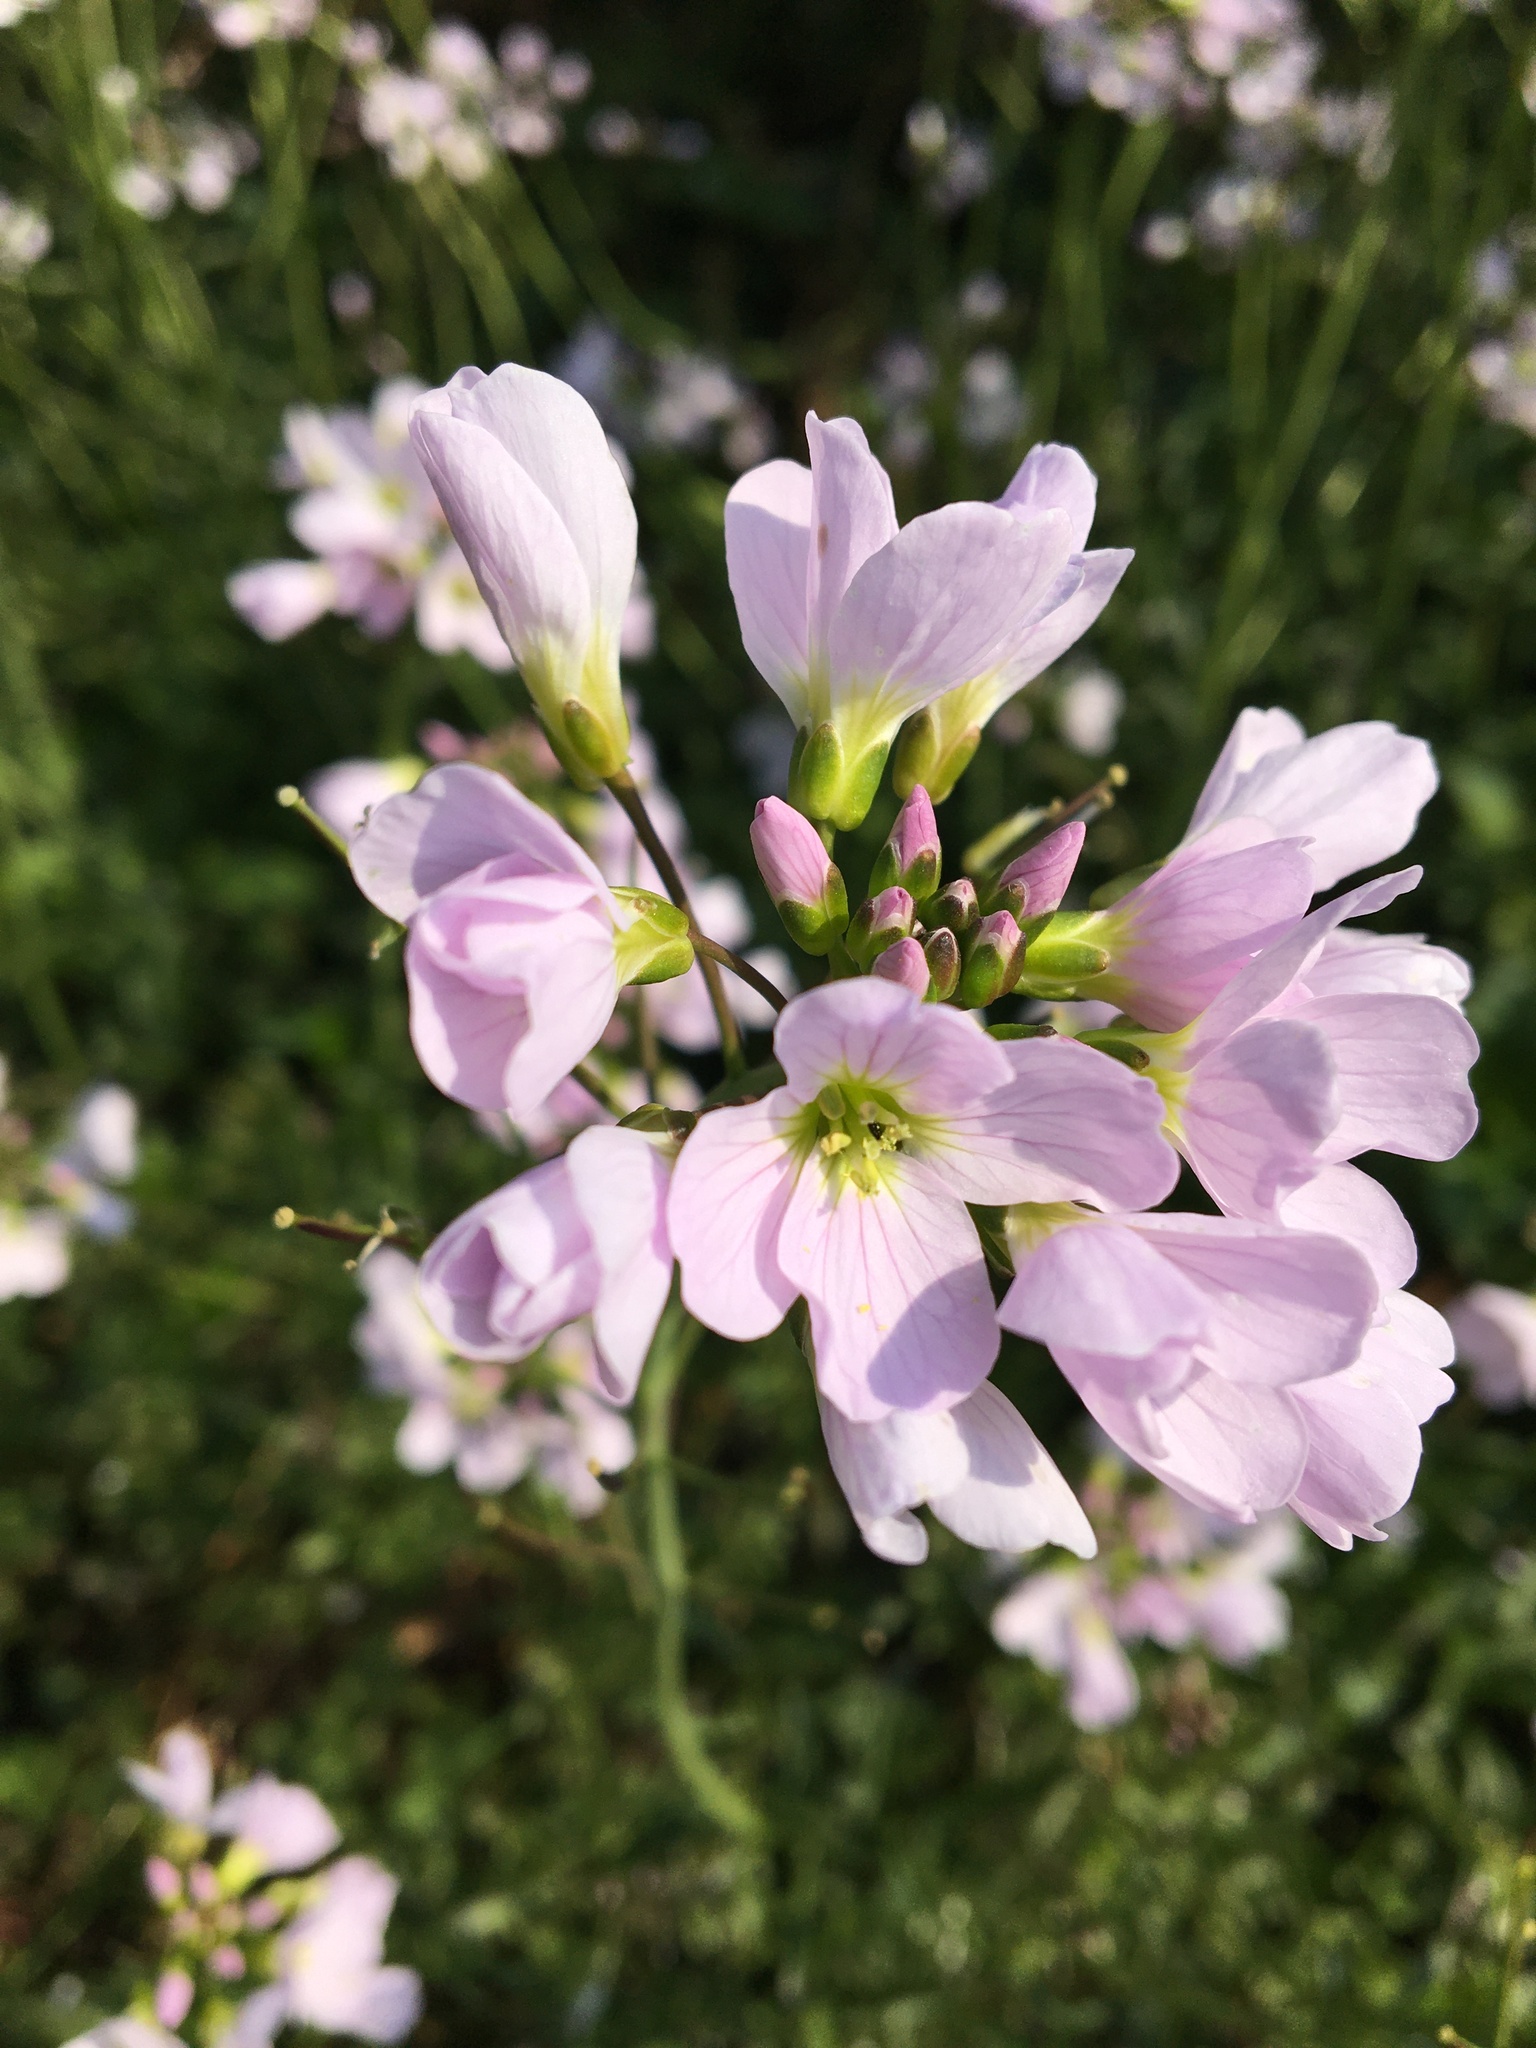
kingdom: Plantae
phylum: Tracheophyta
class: Magnoliopsida
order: Brassicales
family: Brassicaceae
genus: Cardamine
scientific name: Cardamine pratensis
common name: Cuckoo flower
